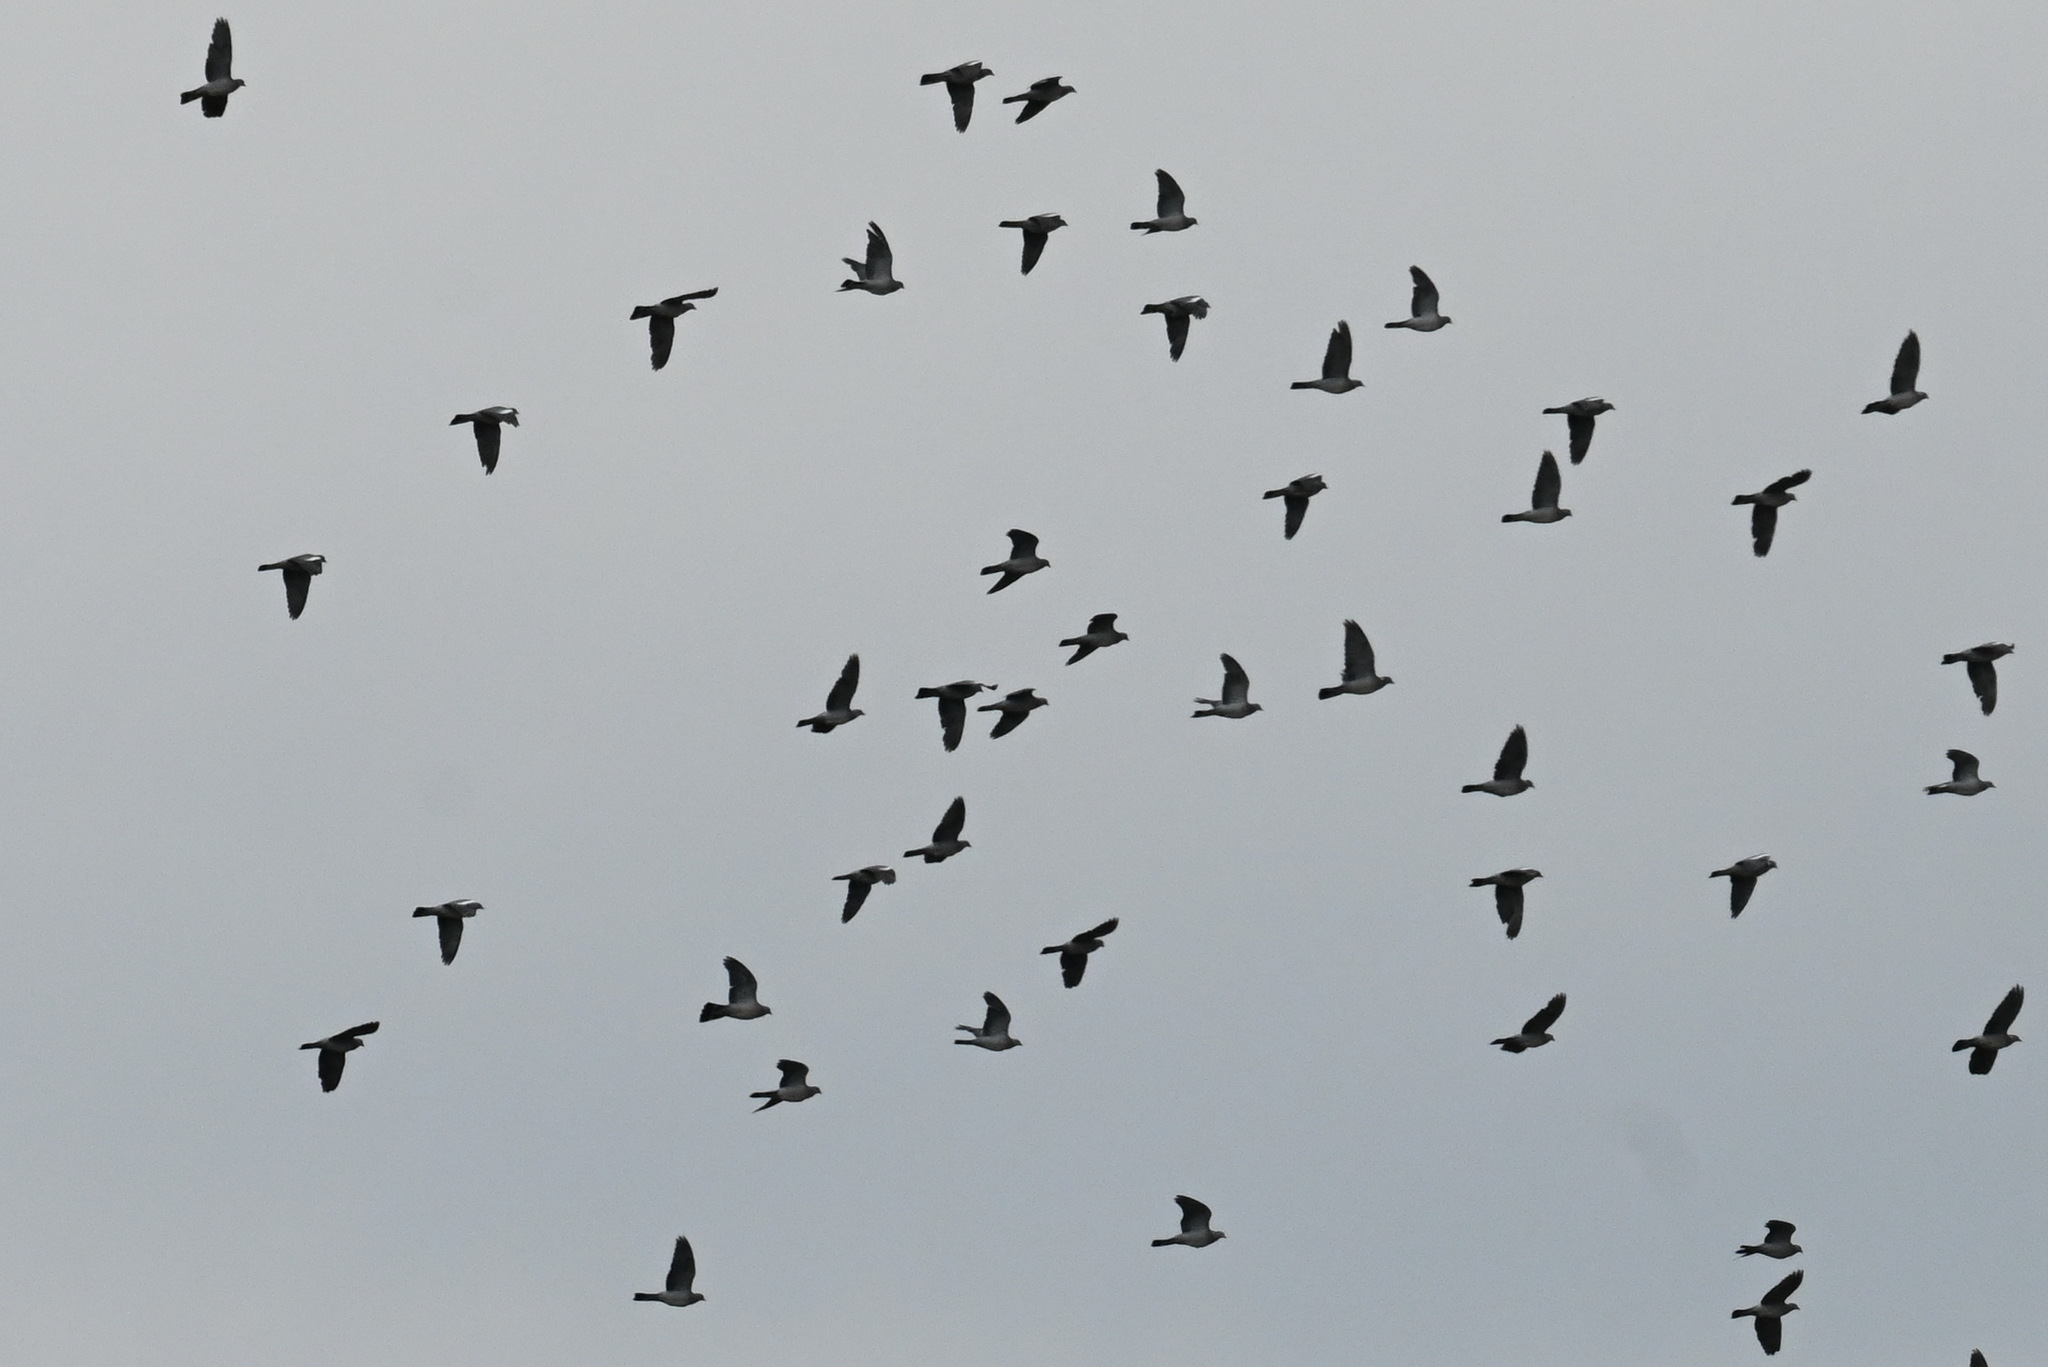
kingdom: Animalia
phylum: Chordata
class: Aves
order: Columbiformes
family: Columbidae
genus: Columba
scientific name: Columba palumbus
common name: Common wood pigeon
